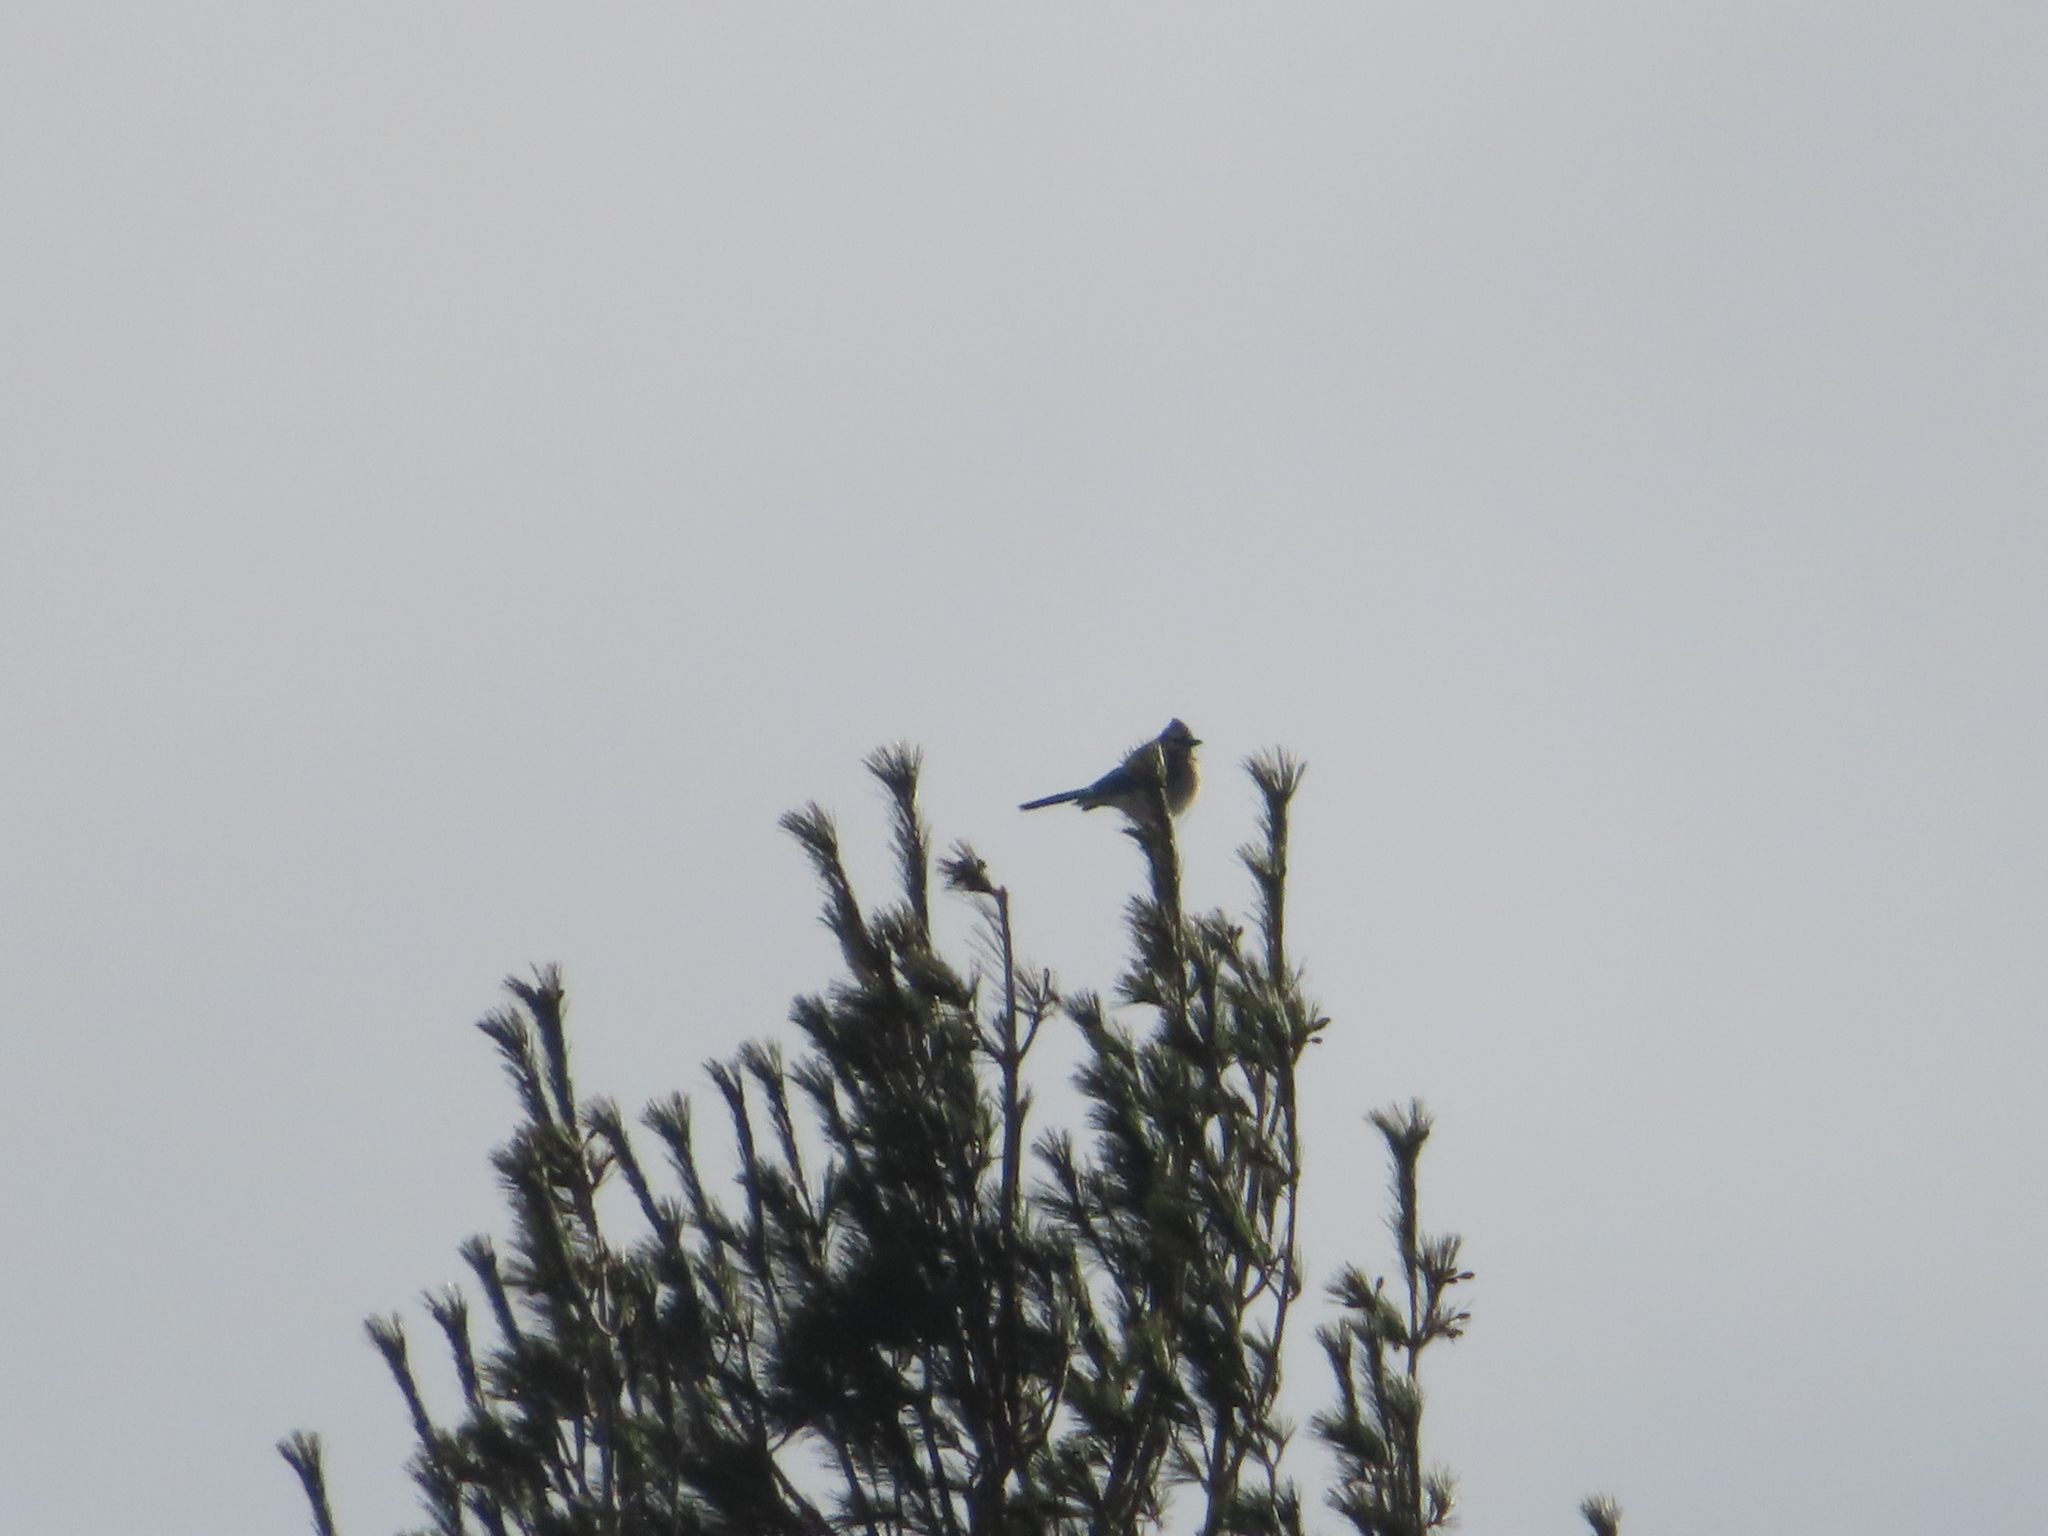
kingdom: Animalia
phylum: Chordata
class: Aves
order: Passeriformes
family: Corvidae
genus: Cyanocitta
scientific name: Cyanocitta cristata
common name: Blue jay
